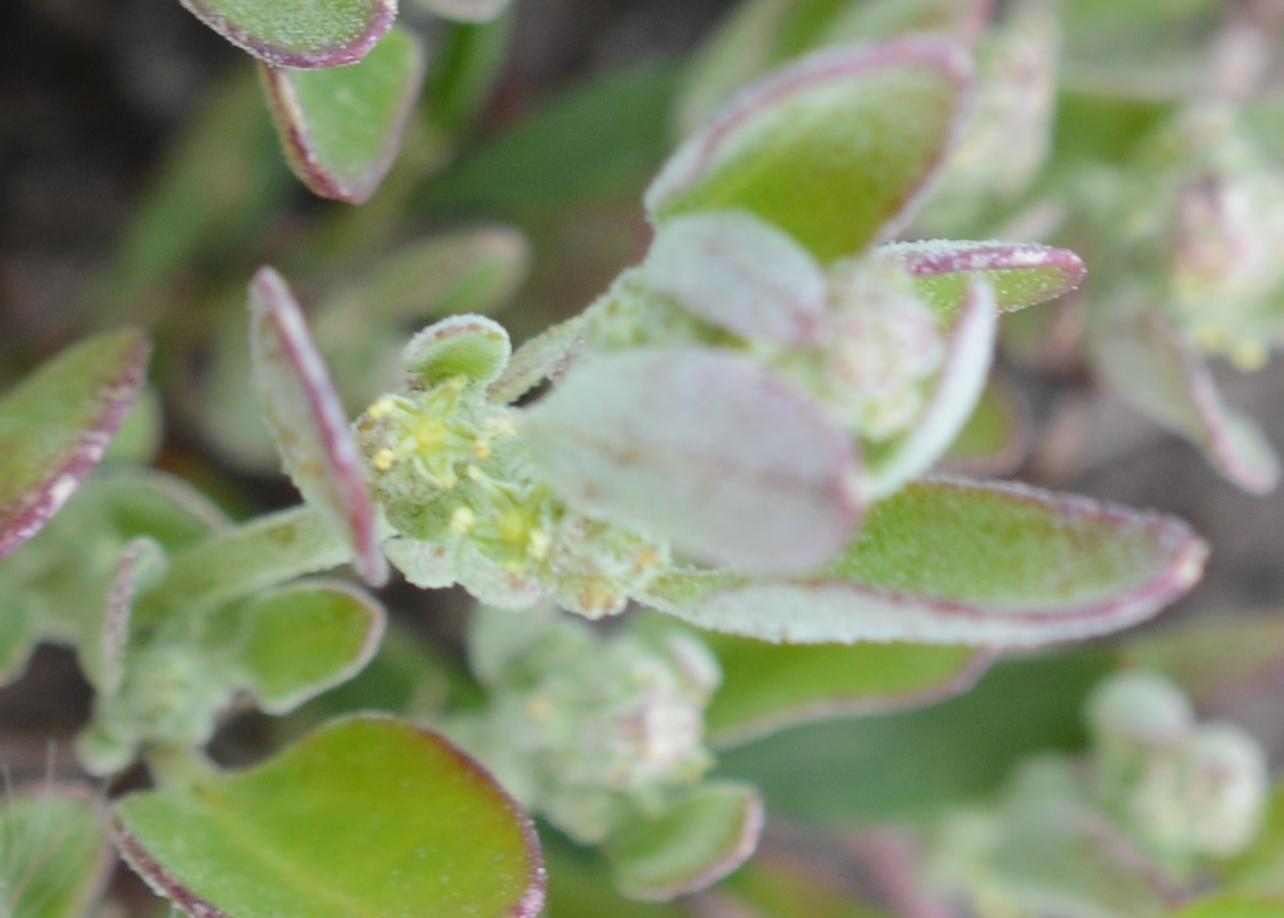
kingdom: Plantae
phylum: Tracheophyta
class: Magnoliopsida
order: Caryophyllales
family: Amaranthaceae
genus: Chenopodium
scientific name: Chenopodium atrovirens
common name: Dark goosefoot
